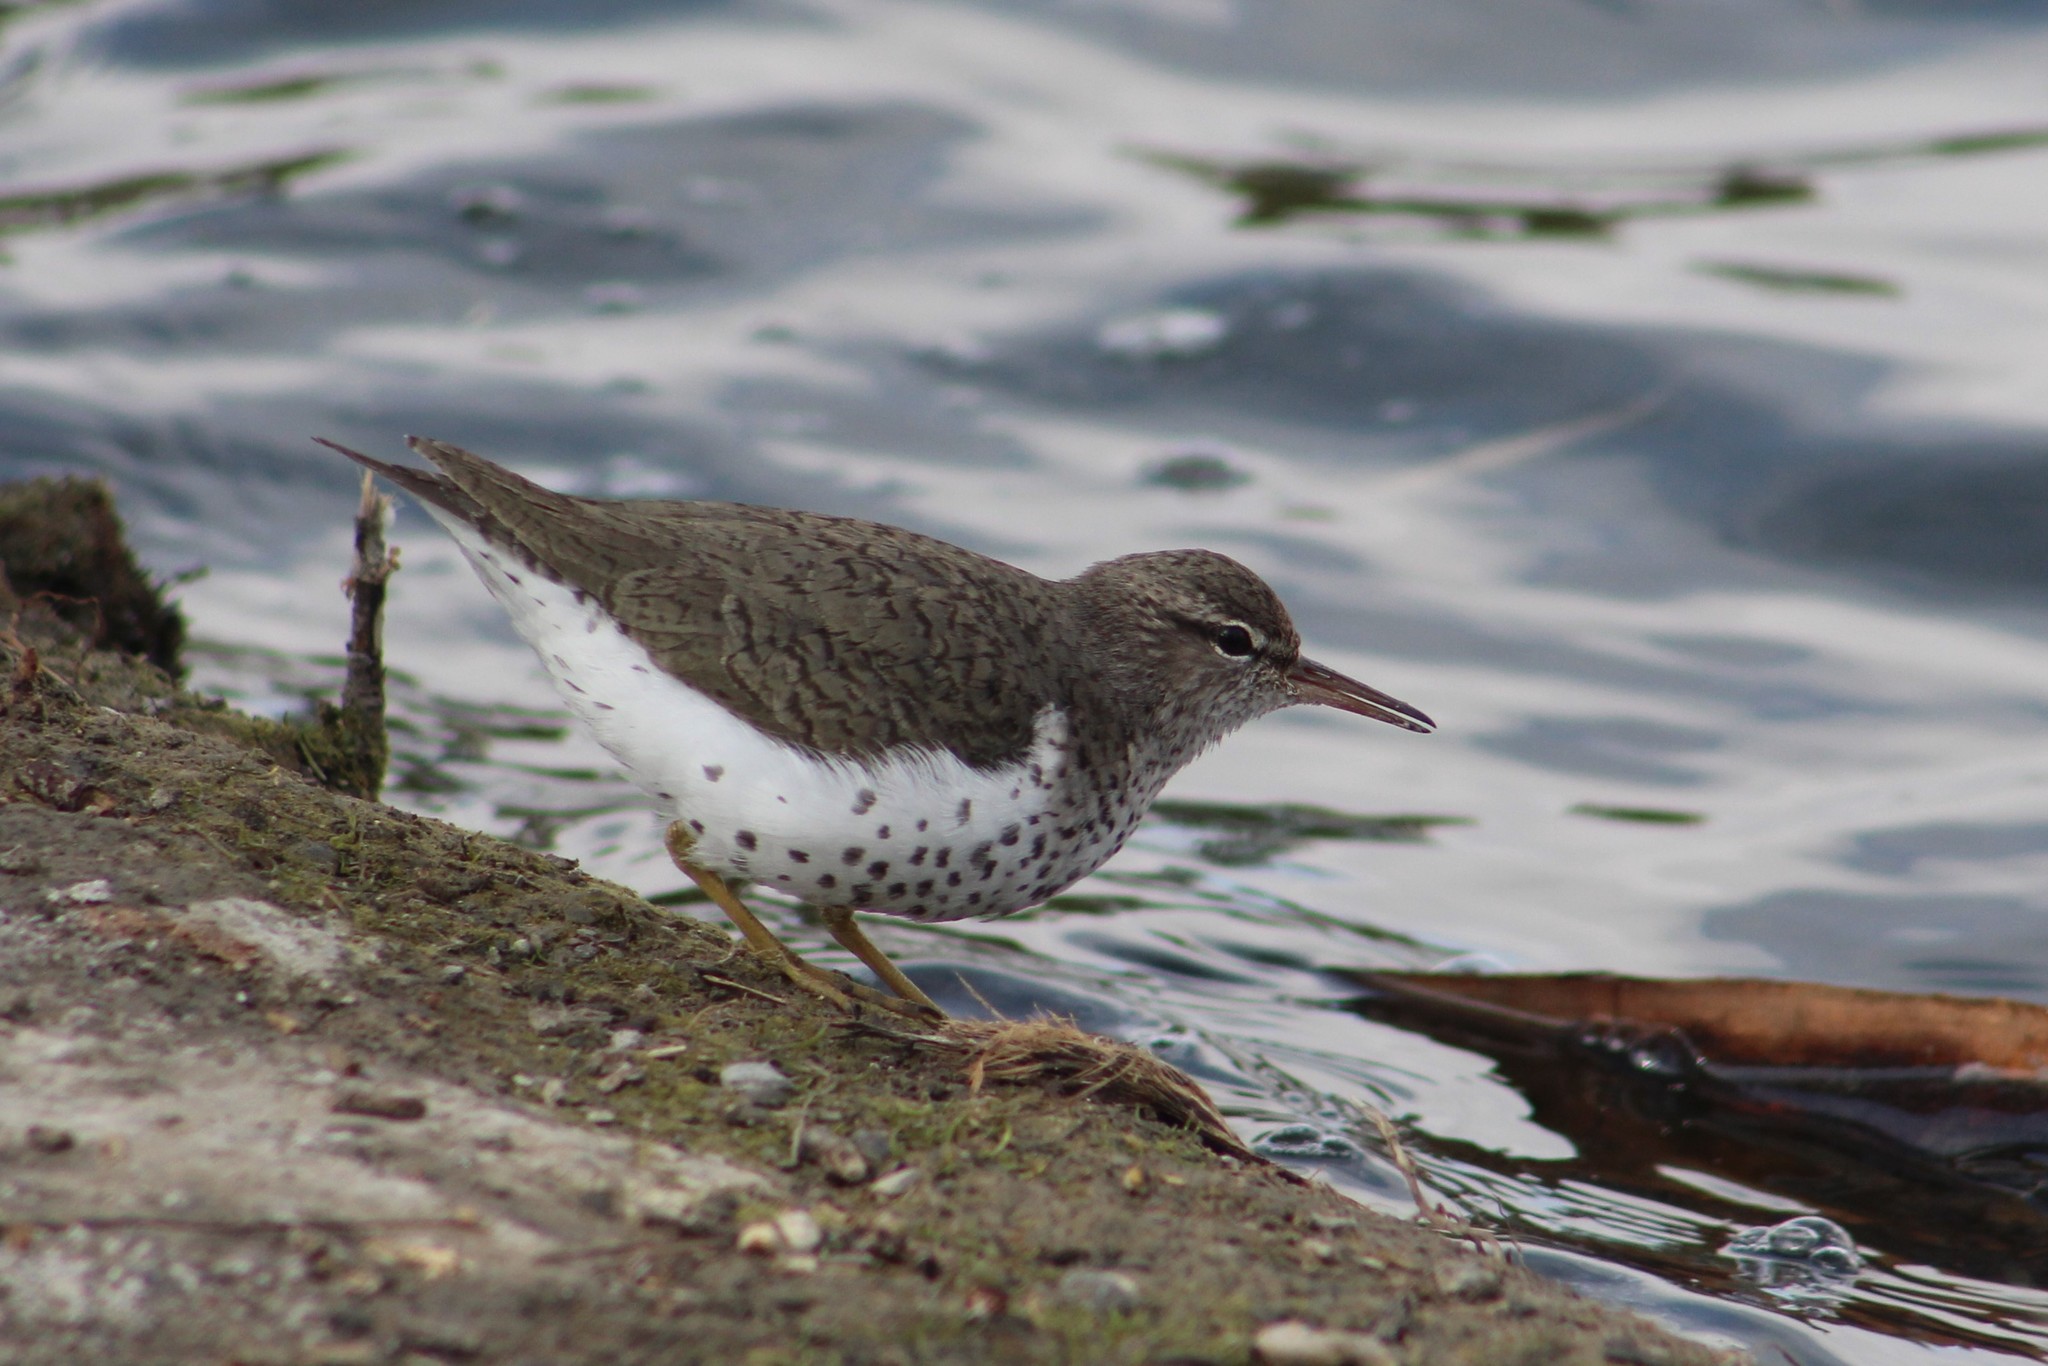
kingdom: Animalia
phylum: Chordata
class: Aves
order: Charadriiformes
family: Scolopacidae
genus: Actitis
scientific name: Actitis macularius
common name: Spotted sandpiper
